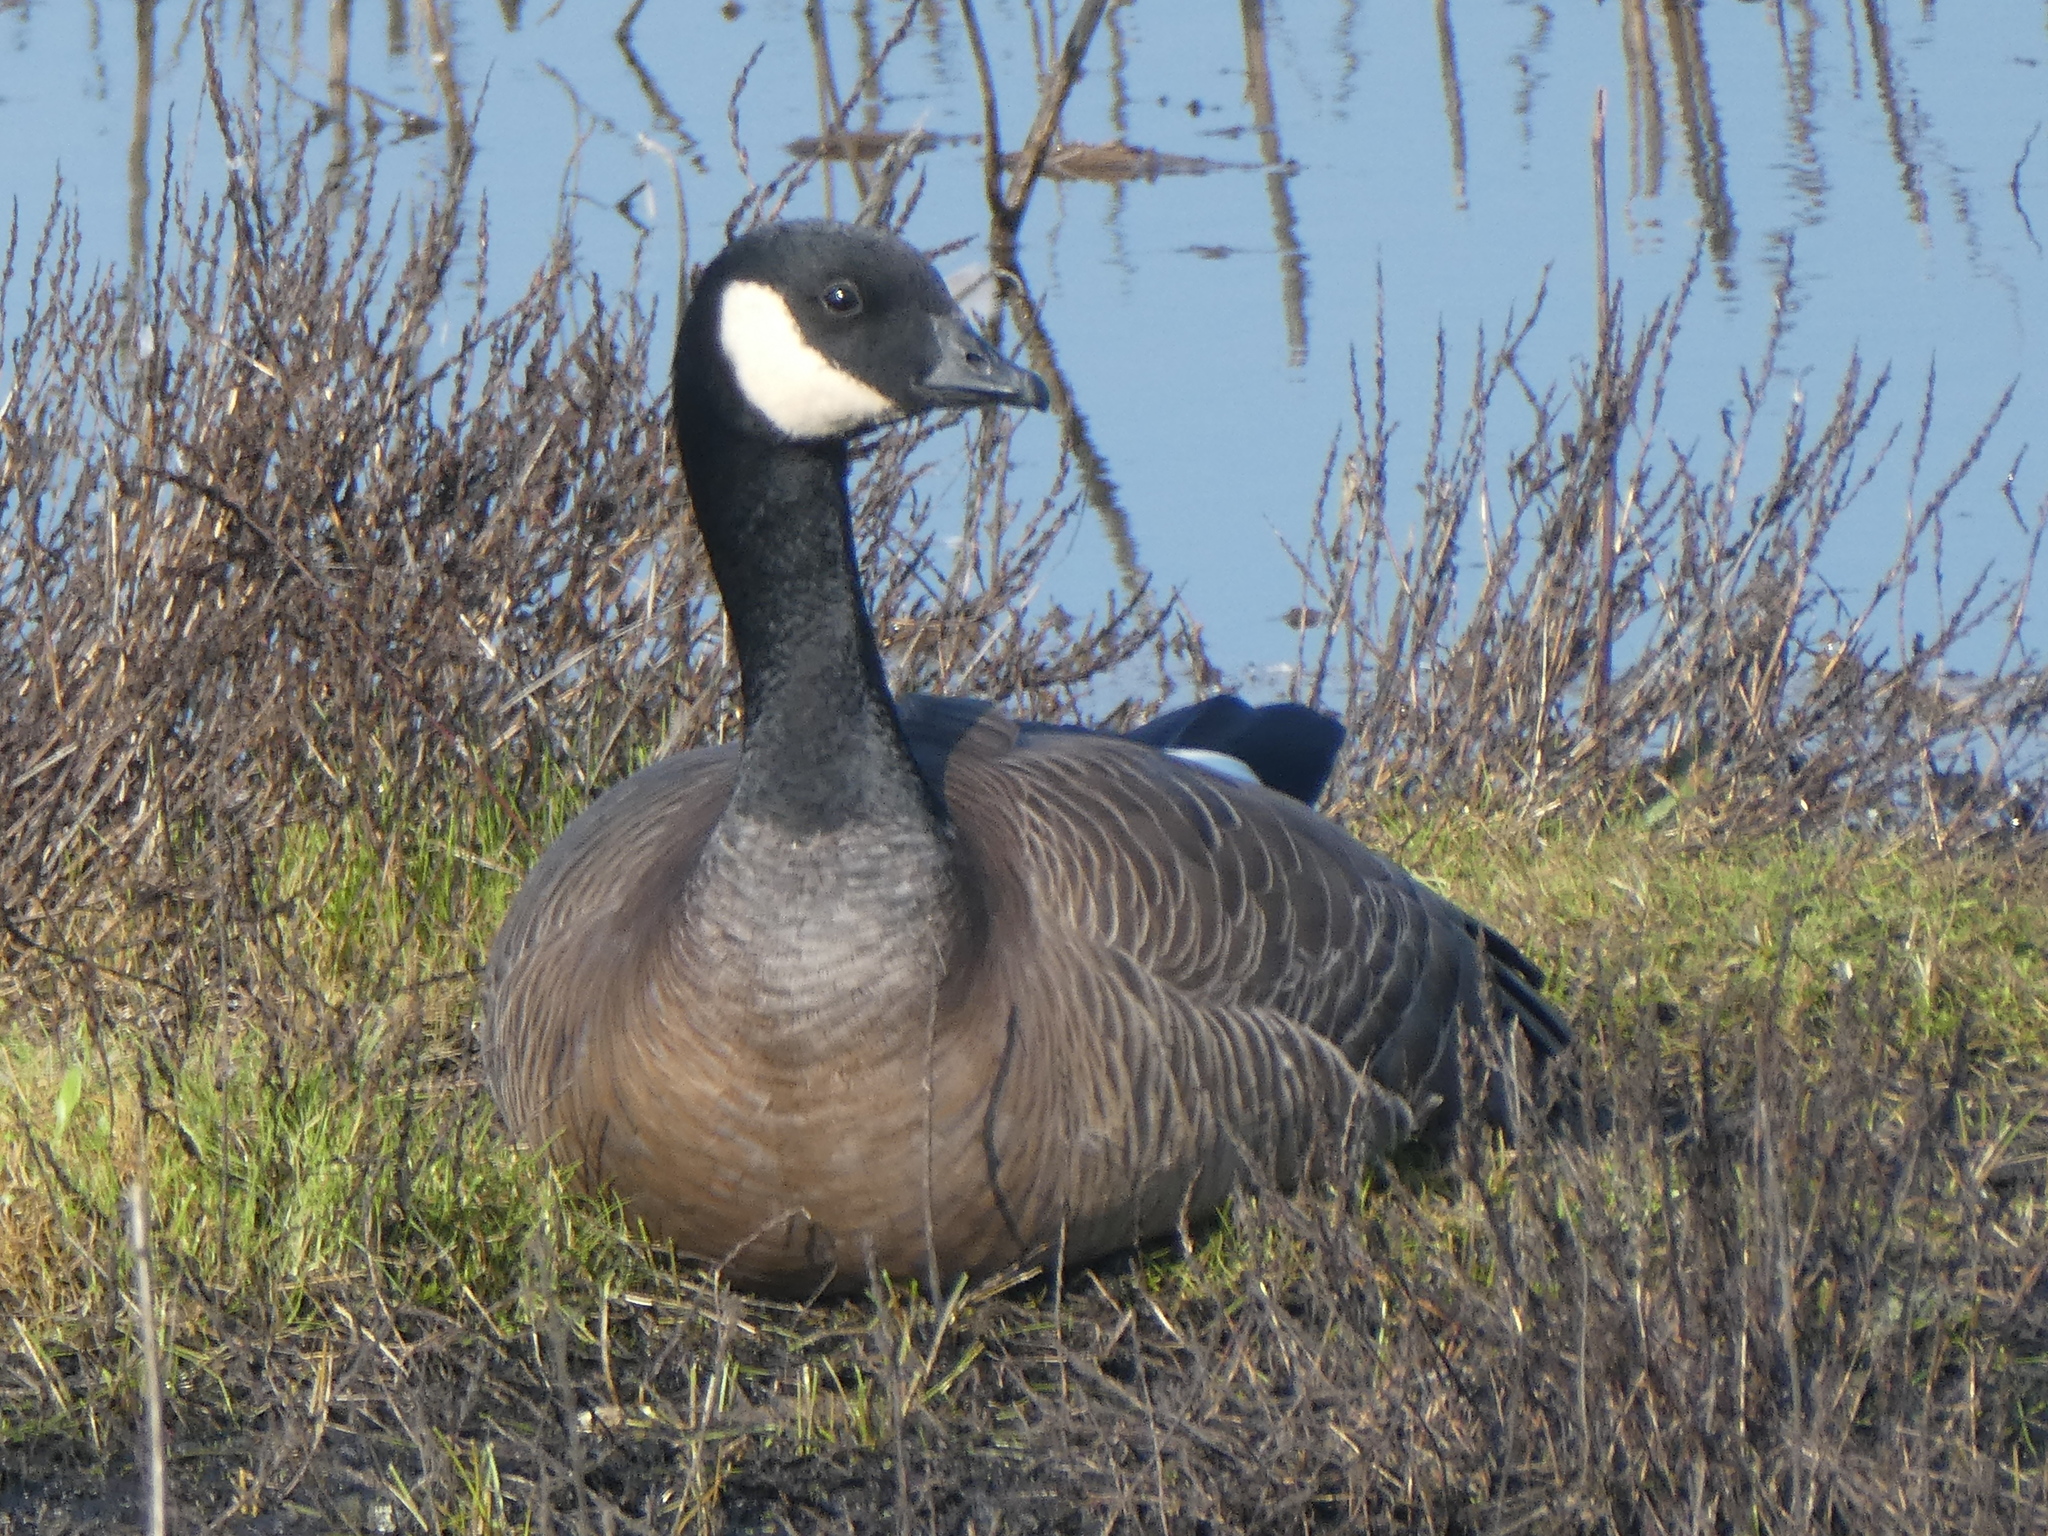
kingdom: Animalia
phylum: Chordata
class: Aves
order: Anseriformes
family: Anatidae
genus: Branta
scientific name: Branta hutchinsii
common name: Cackling goose
